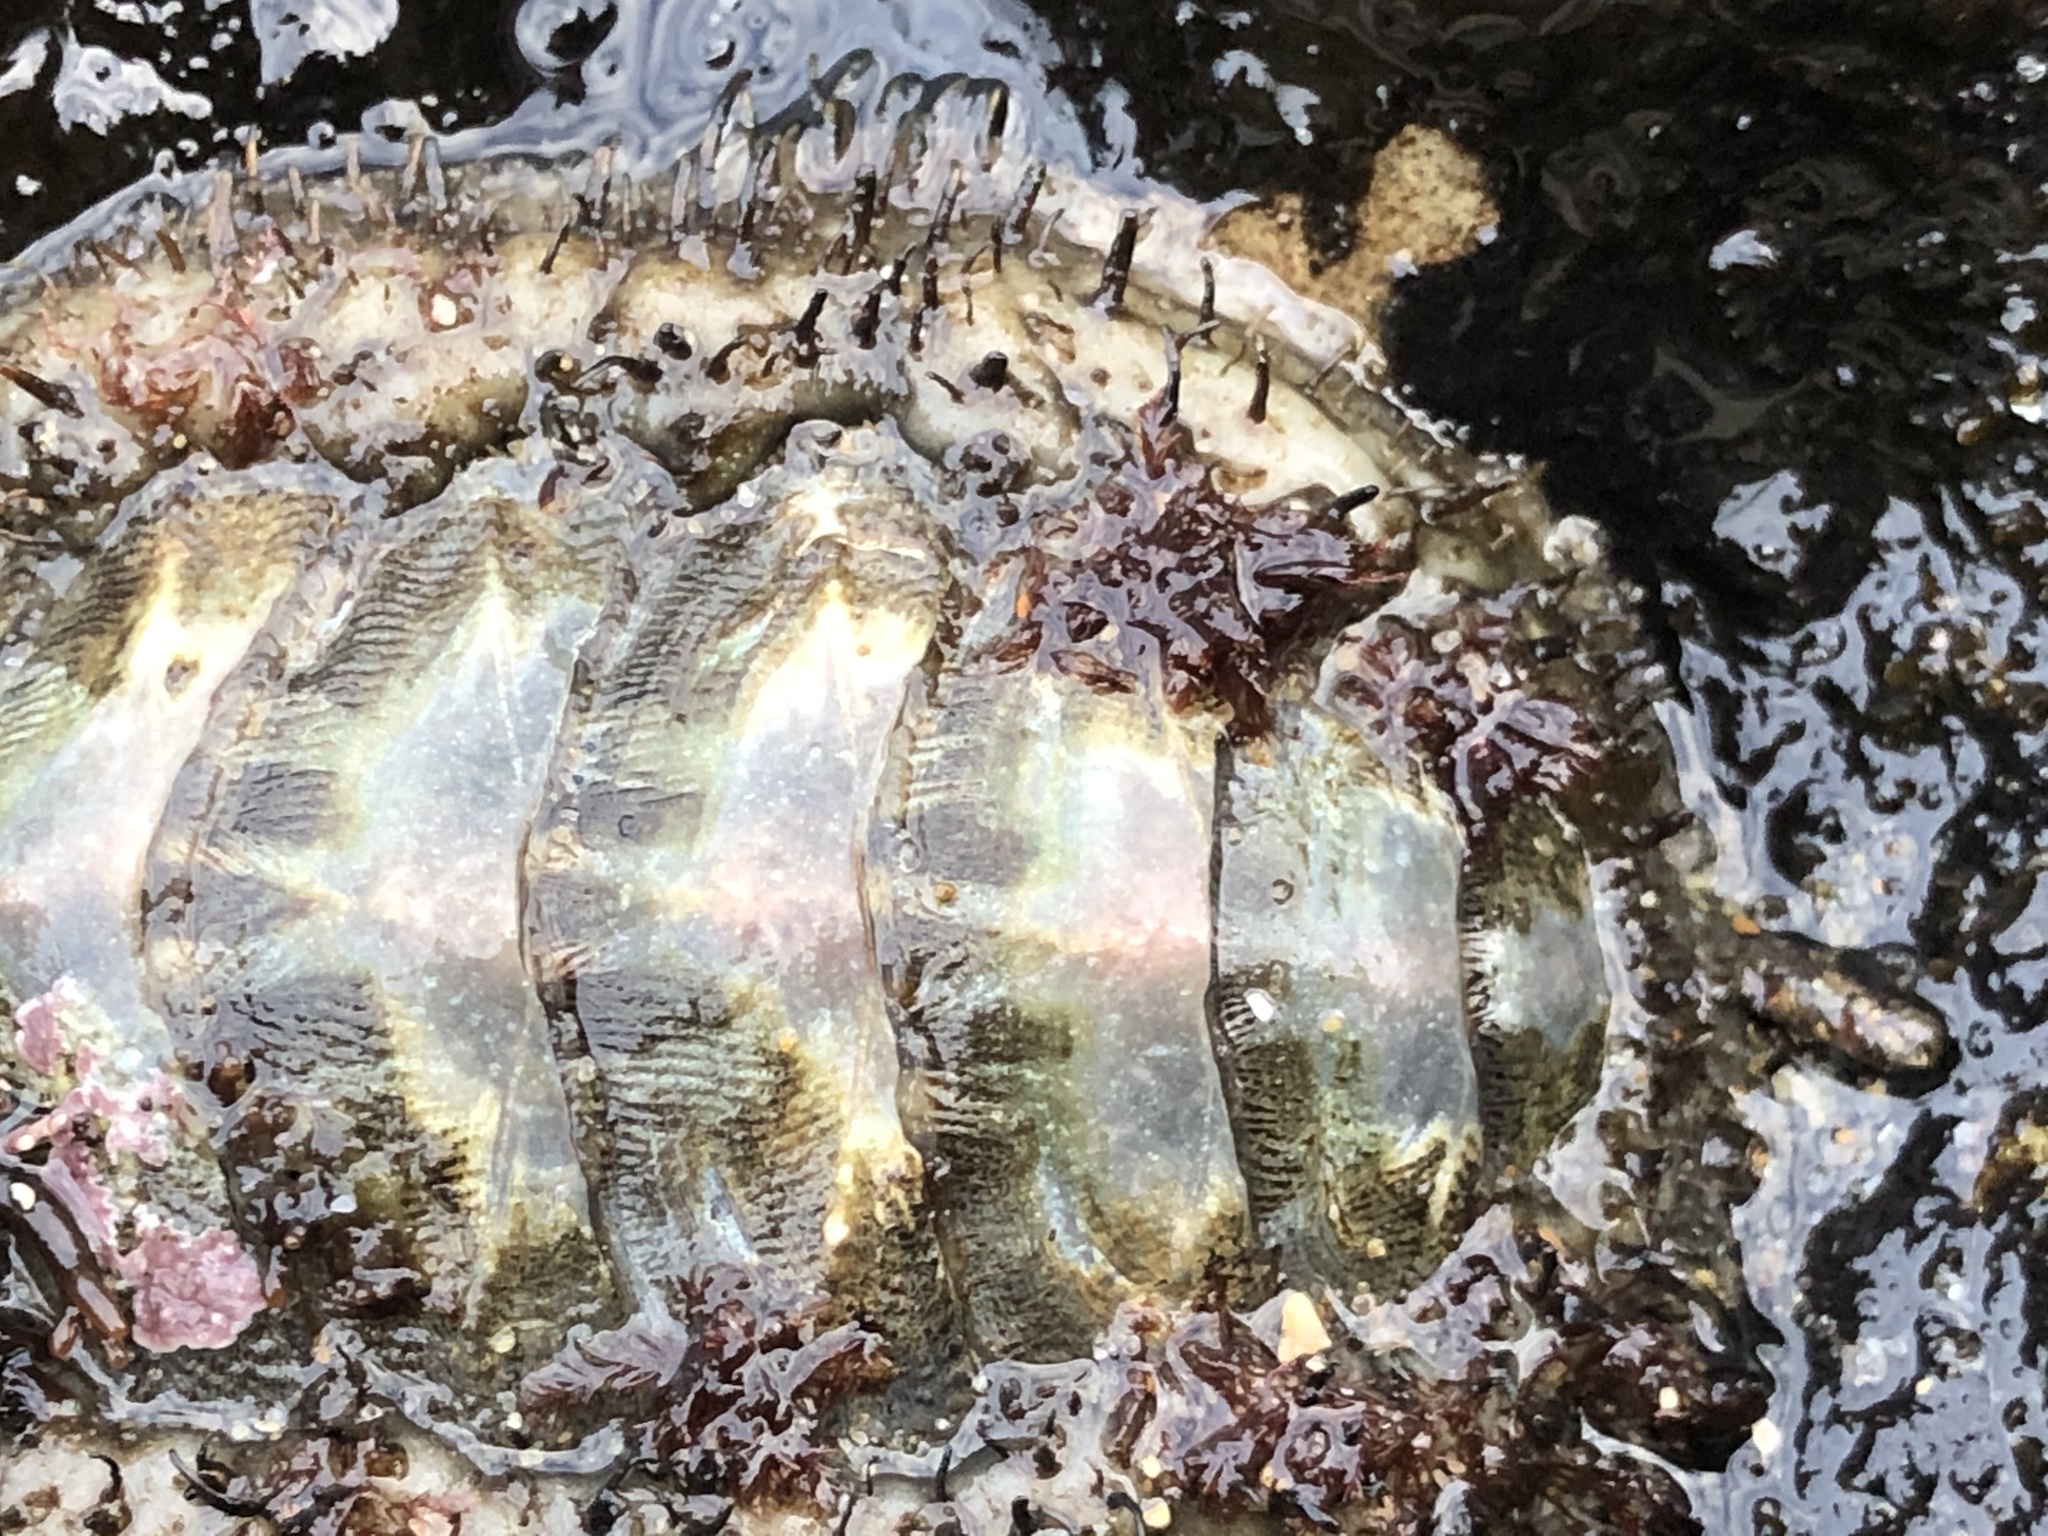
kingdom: Animalia
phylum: Mollusca
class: Polyplacophora
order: Chitonida
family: Mopaliidae
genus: Mopalia
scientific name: Mopalia muscosa
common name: Mossy chiton
